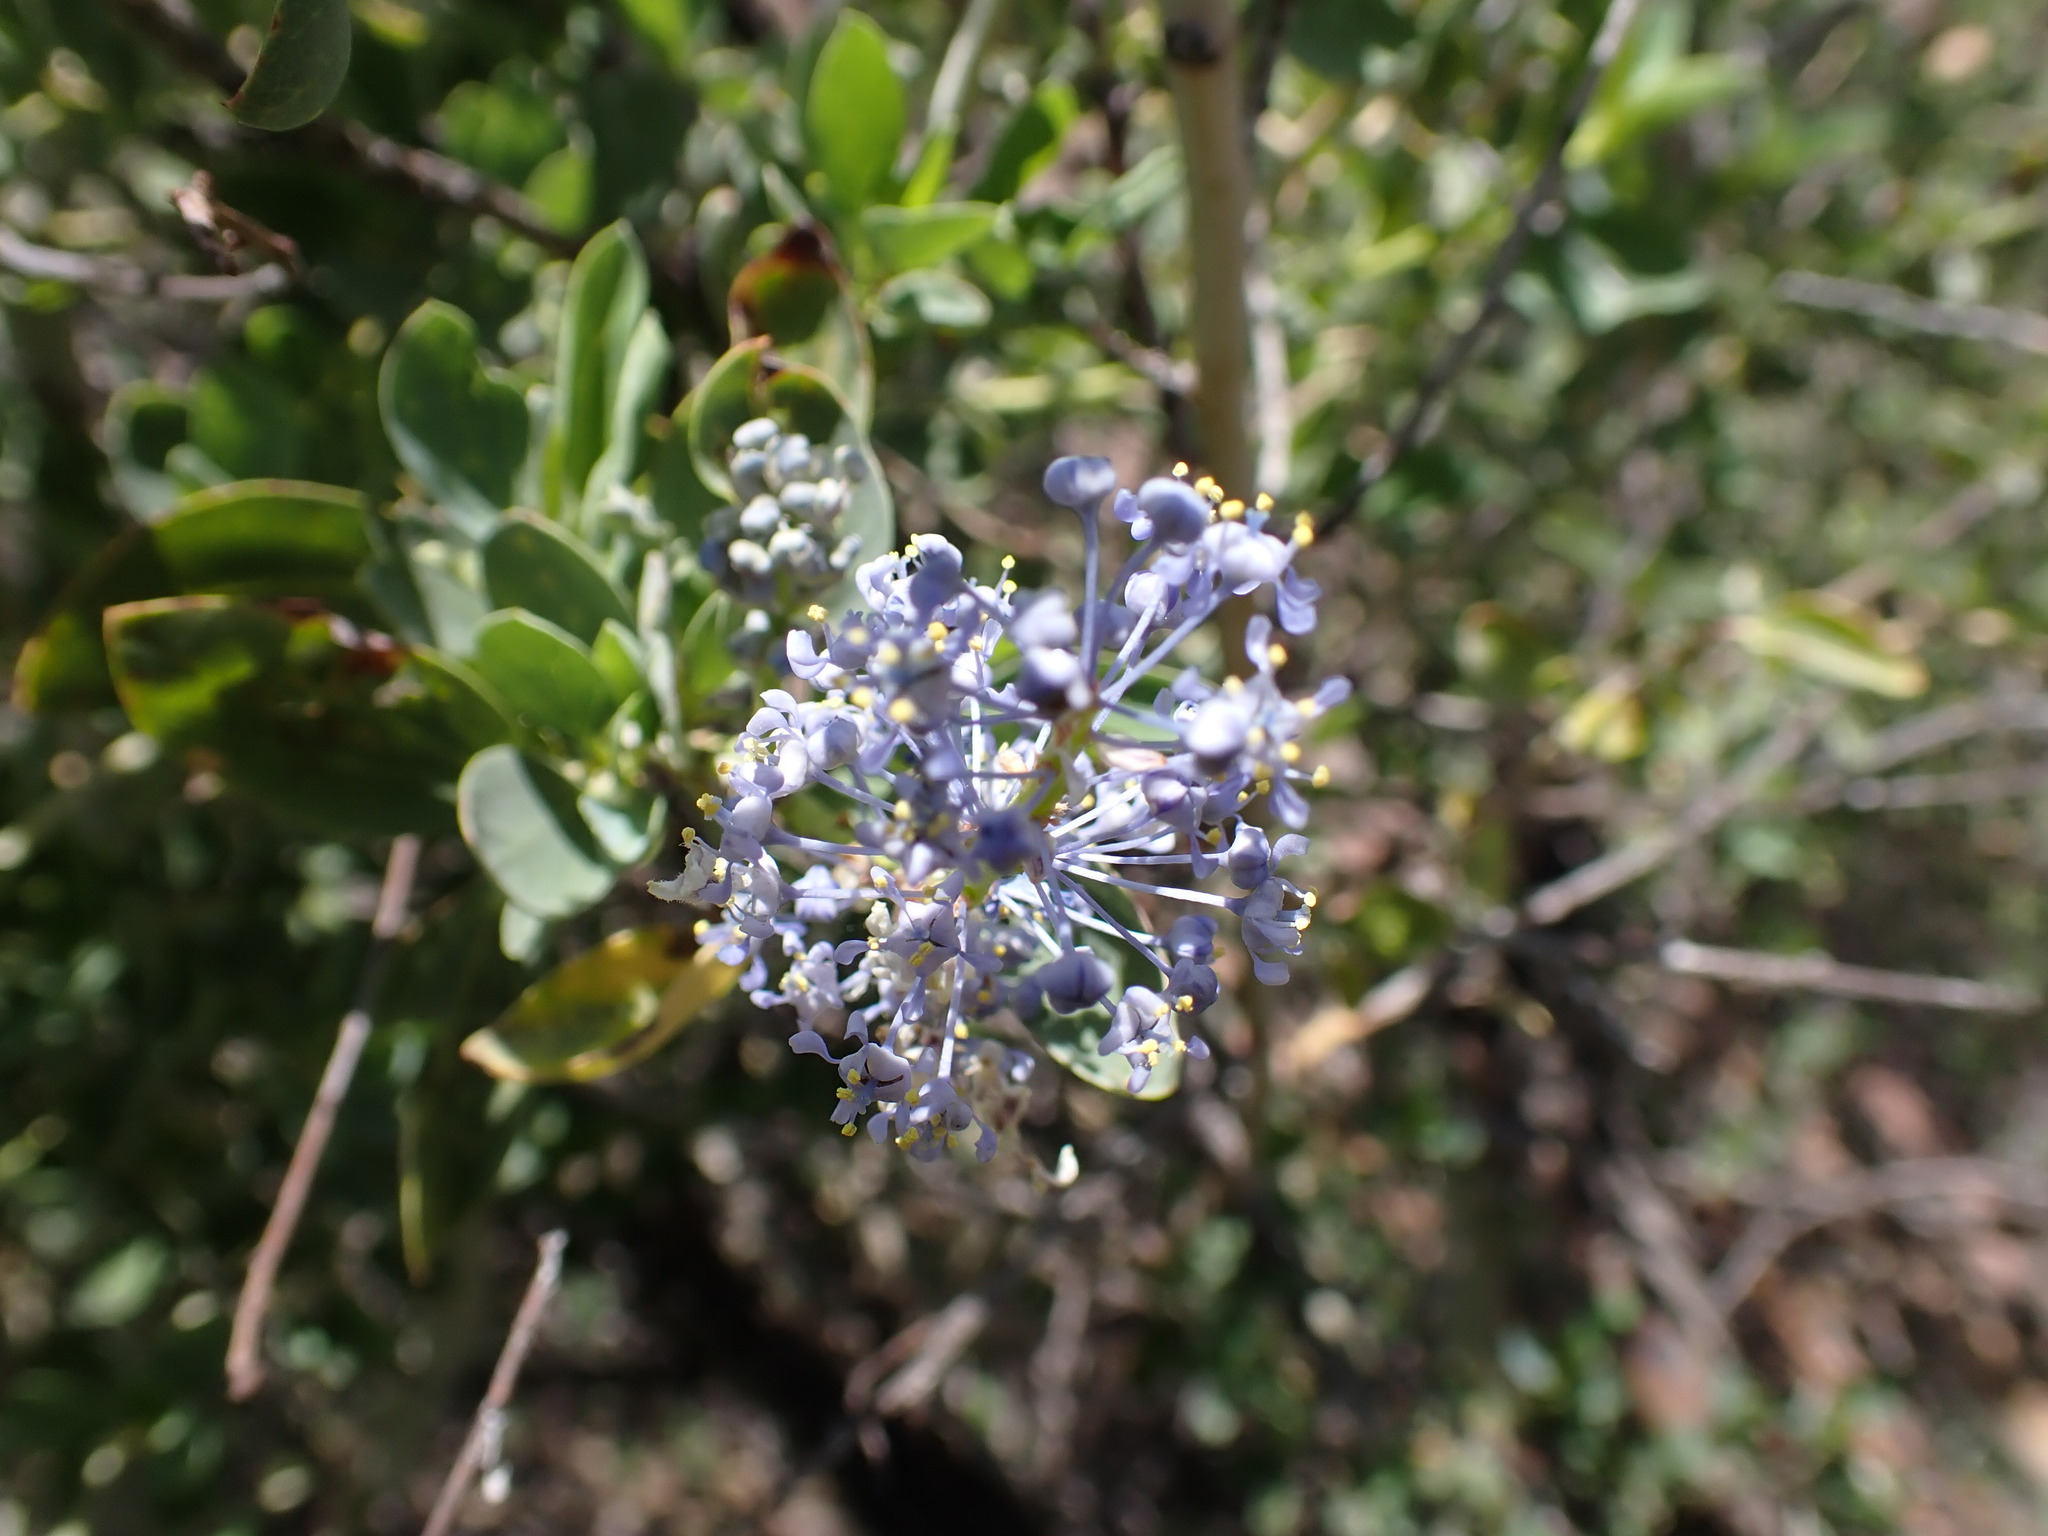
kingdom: Plantae
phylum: Tracheophyta
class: Magnoliopsida
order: Rosales
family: Rhamnaceae
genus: Ceanothus
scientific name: Ceanothus leucodermis
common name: Chaparral whitethorn
